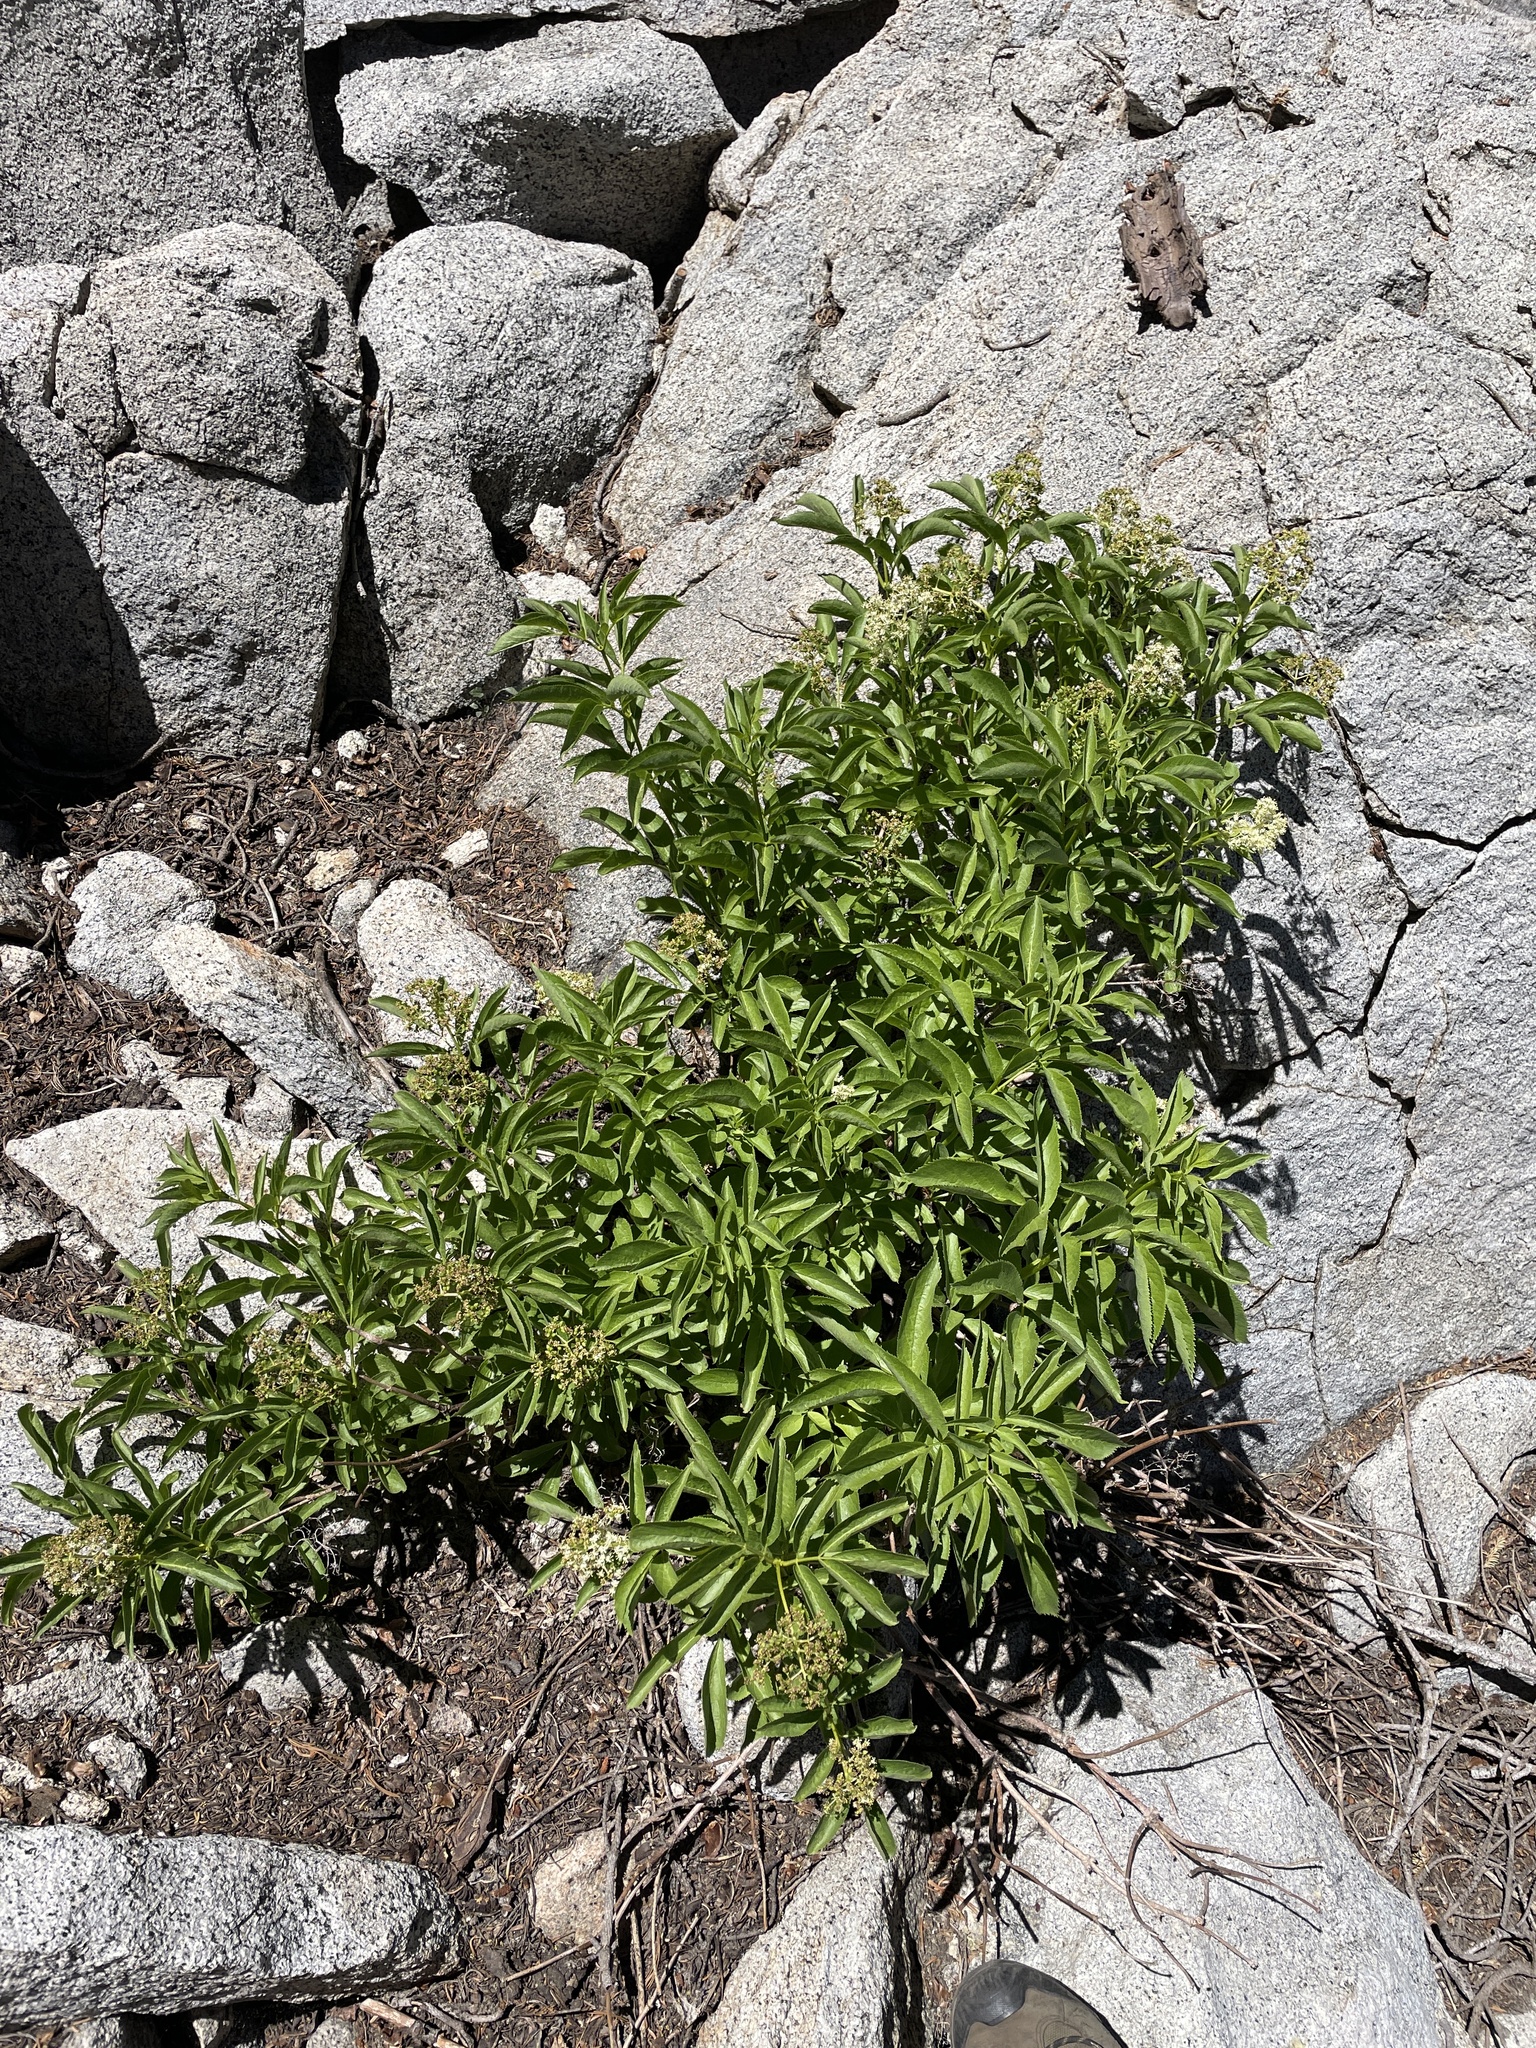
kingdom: Plantae
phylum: Tracheophyta
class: Magnoliopsida
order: Dipsacales
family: Viburnaceae
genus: Sambucus
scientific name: Sambucus racemosa
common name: Red-berried elder
